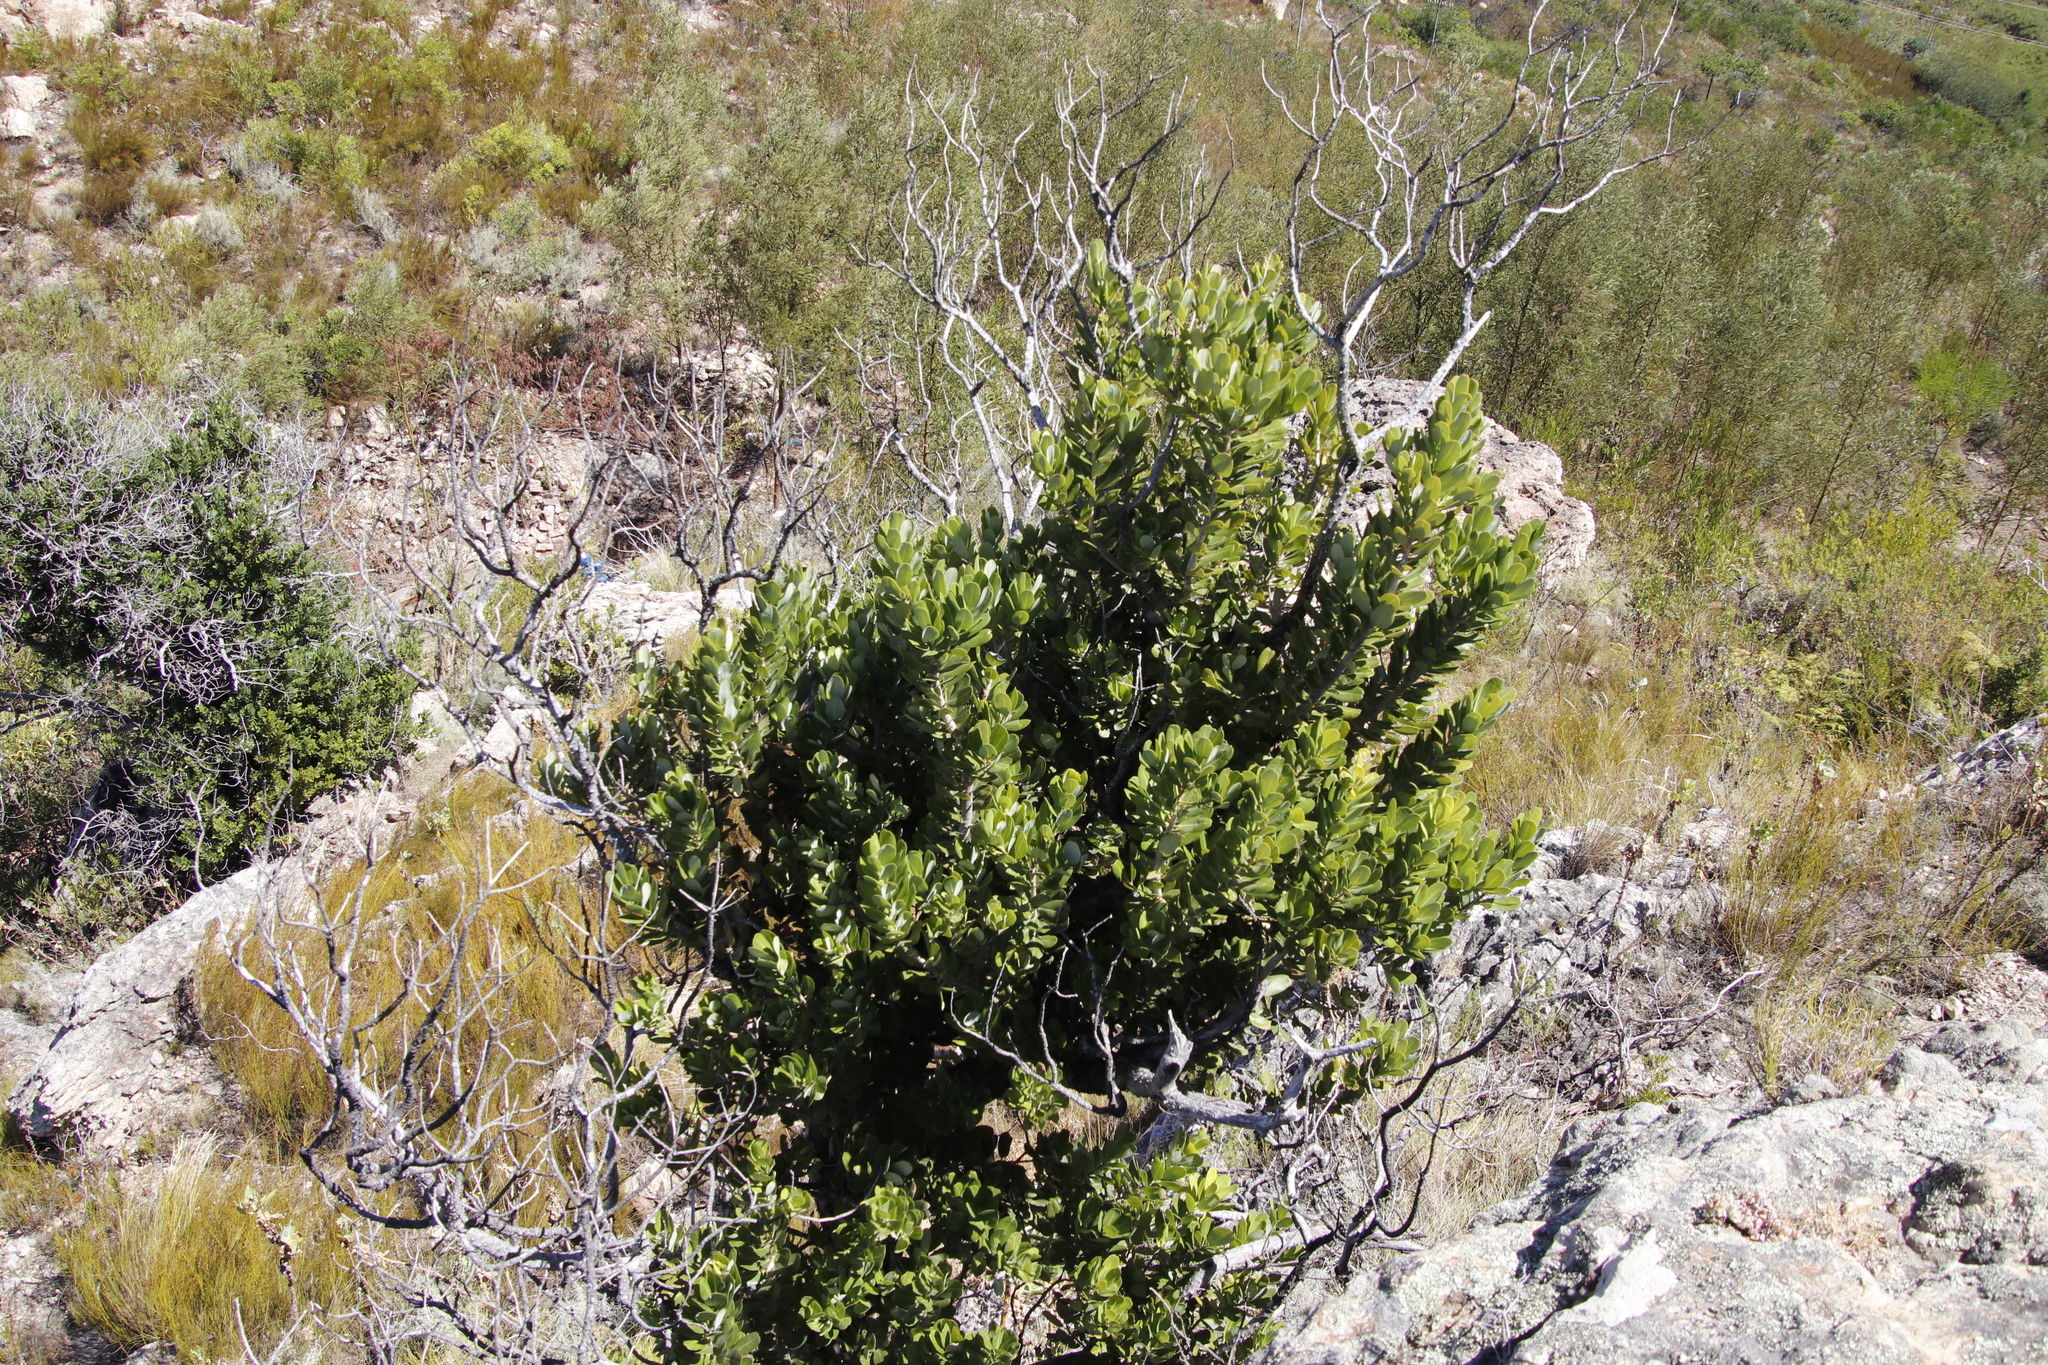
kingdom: Plantae
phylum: Tracheophyta
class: Magnoliopsida
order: Celastrales
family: Celastraceae
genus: Gymnosporia
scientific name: Gymnosporia laurina
